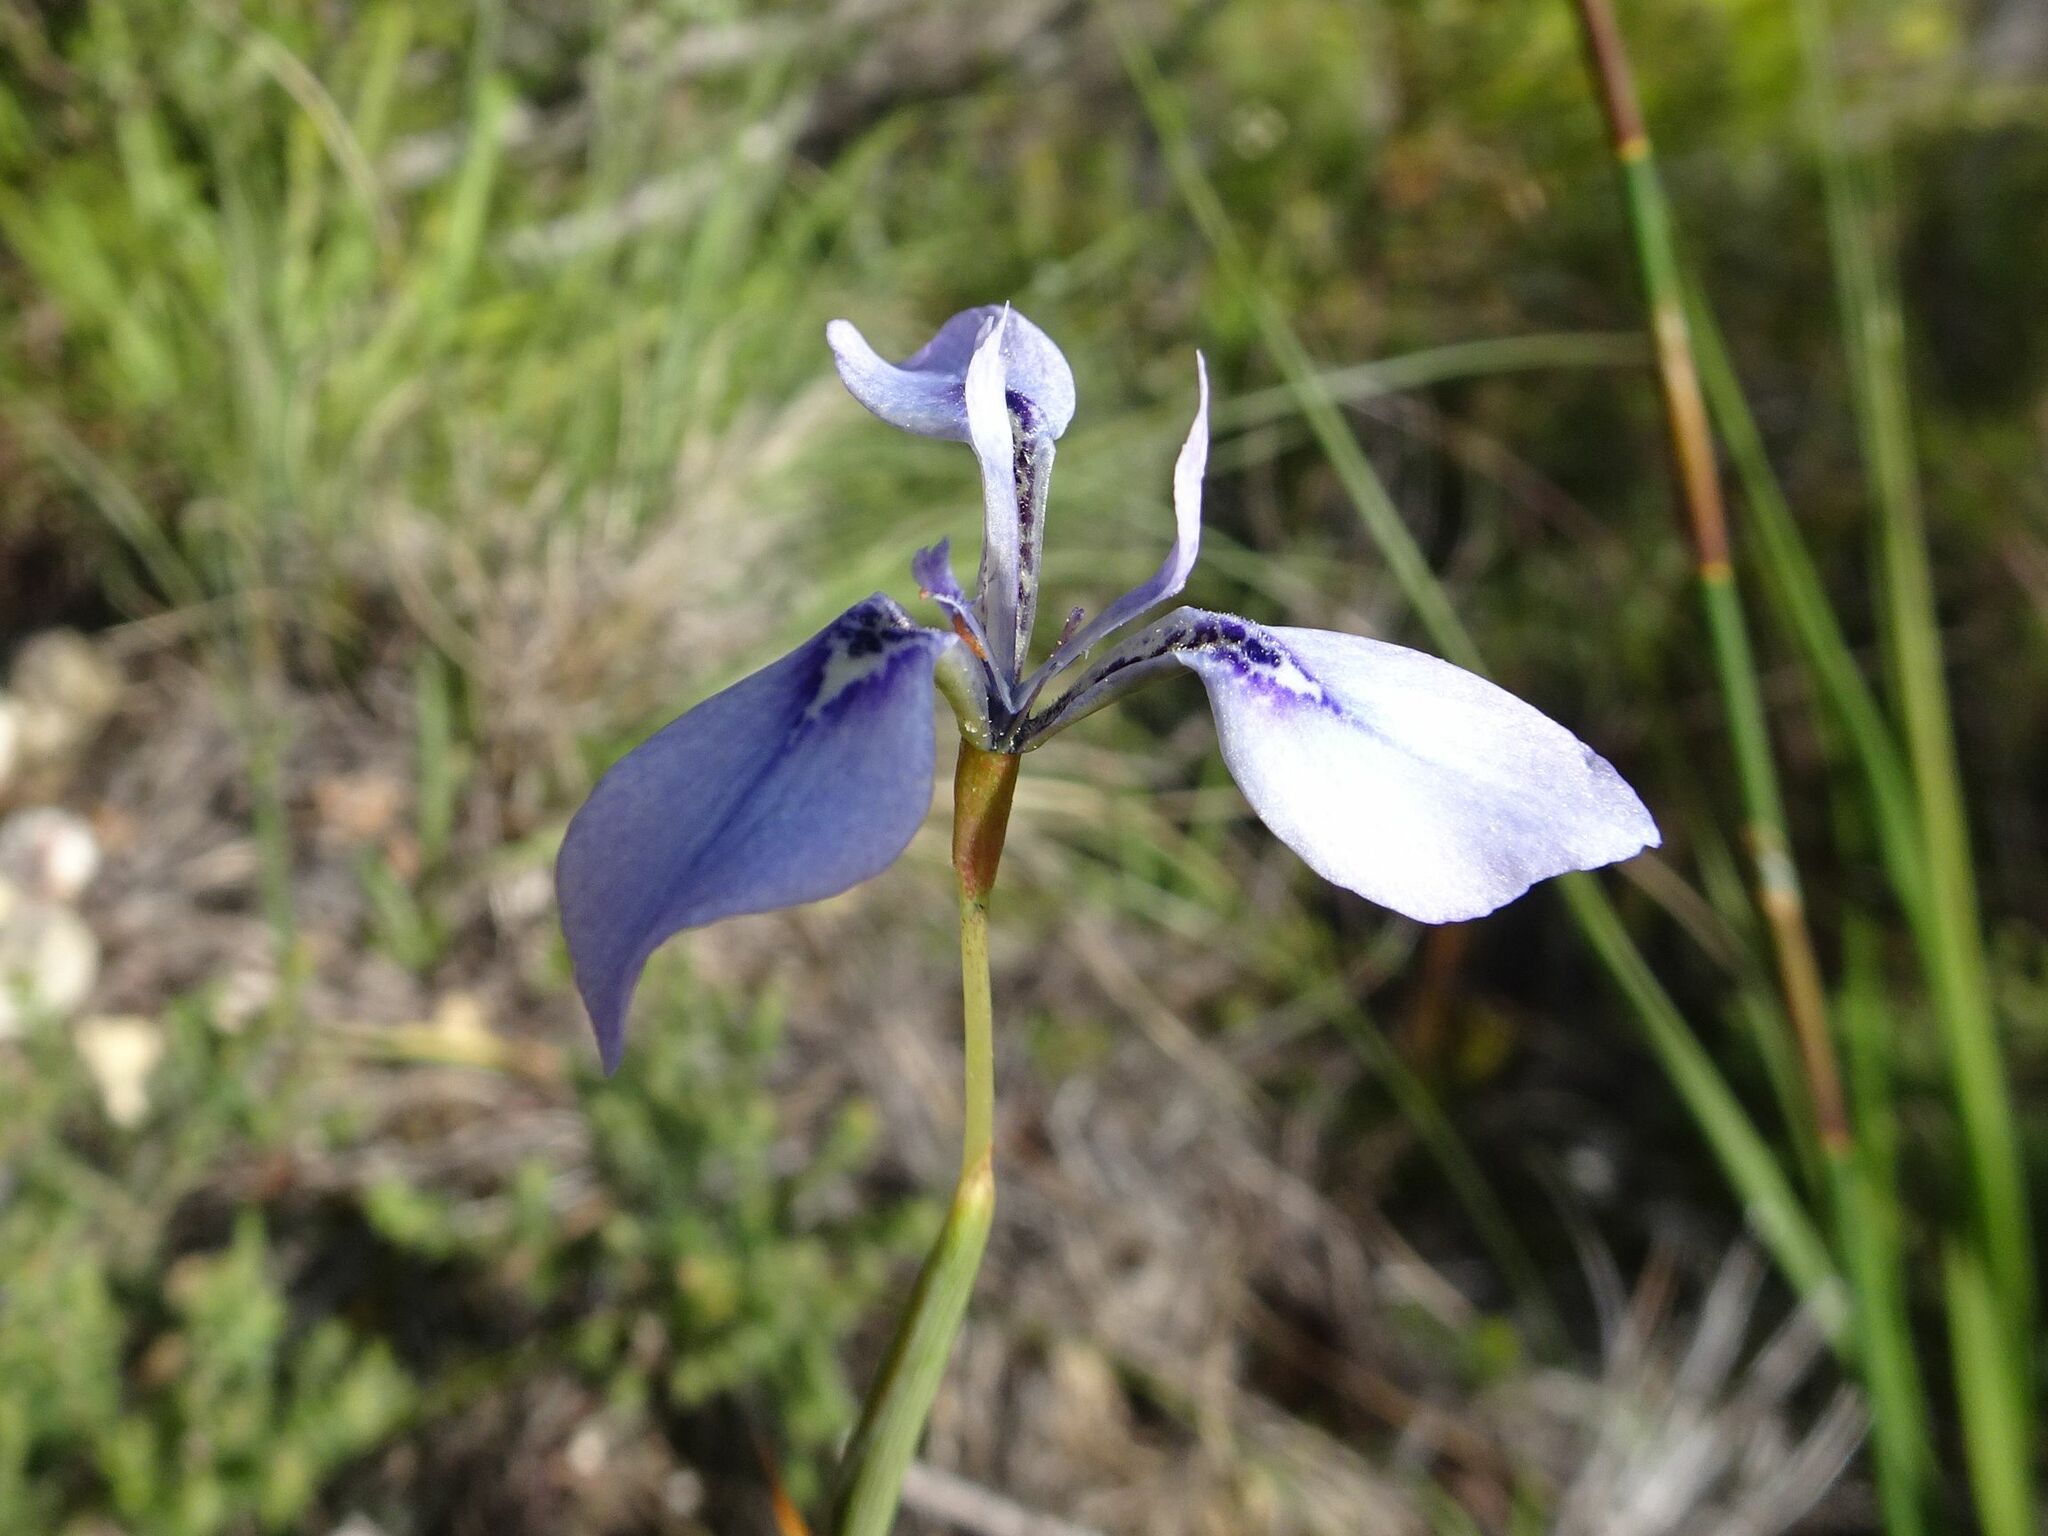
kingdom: Plantae
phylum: Tracheophyta
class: Liliopsida
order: Asparagales
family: Iridaceae
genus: Moraea
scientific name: Moraea tripetala
